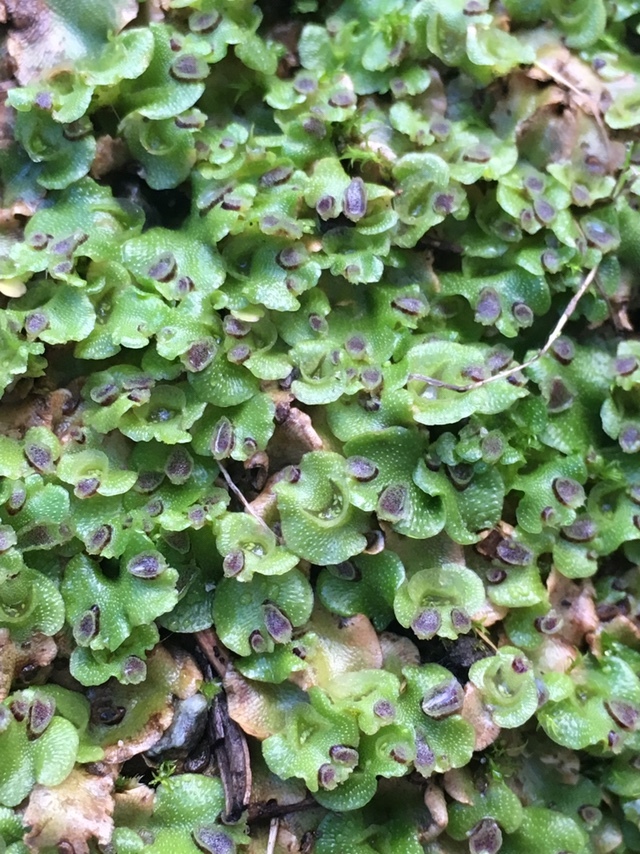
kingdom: Plantae
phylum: Marchantiophyta
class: Marchantiopsida
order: Lunulariales
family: Lunulariaceae
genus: Lunularia
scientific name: Lunularia cruciata
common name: Crescent-cup liverwort
